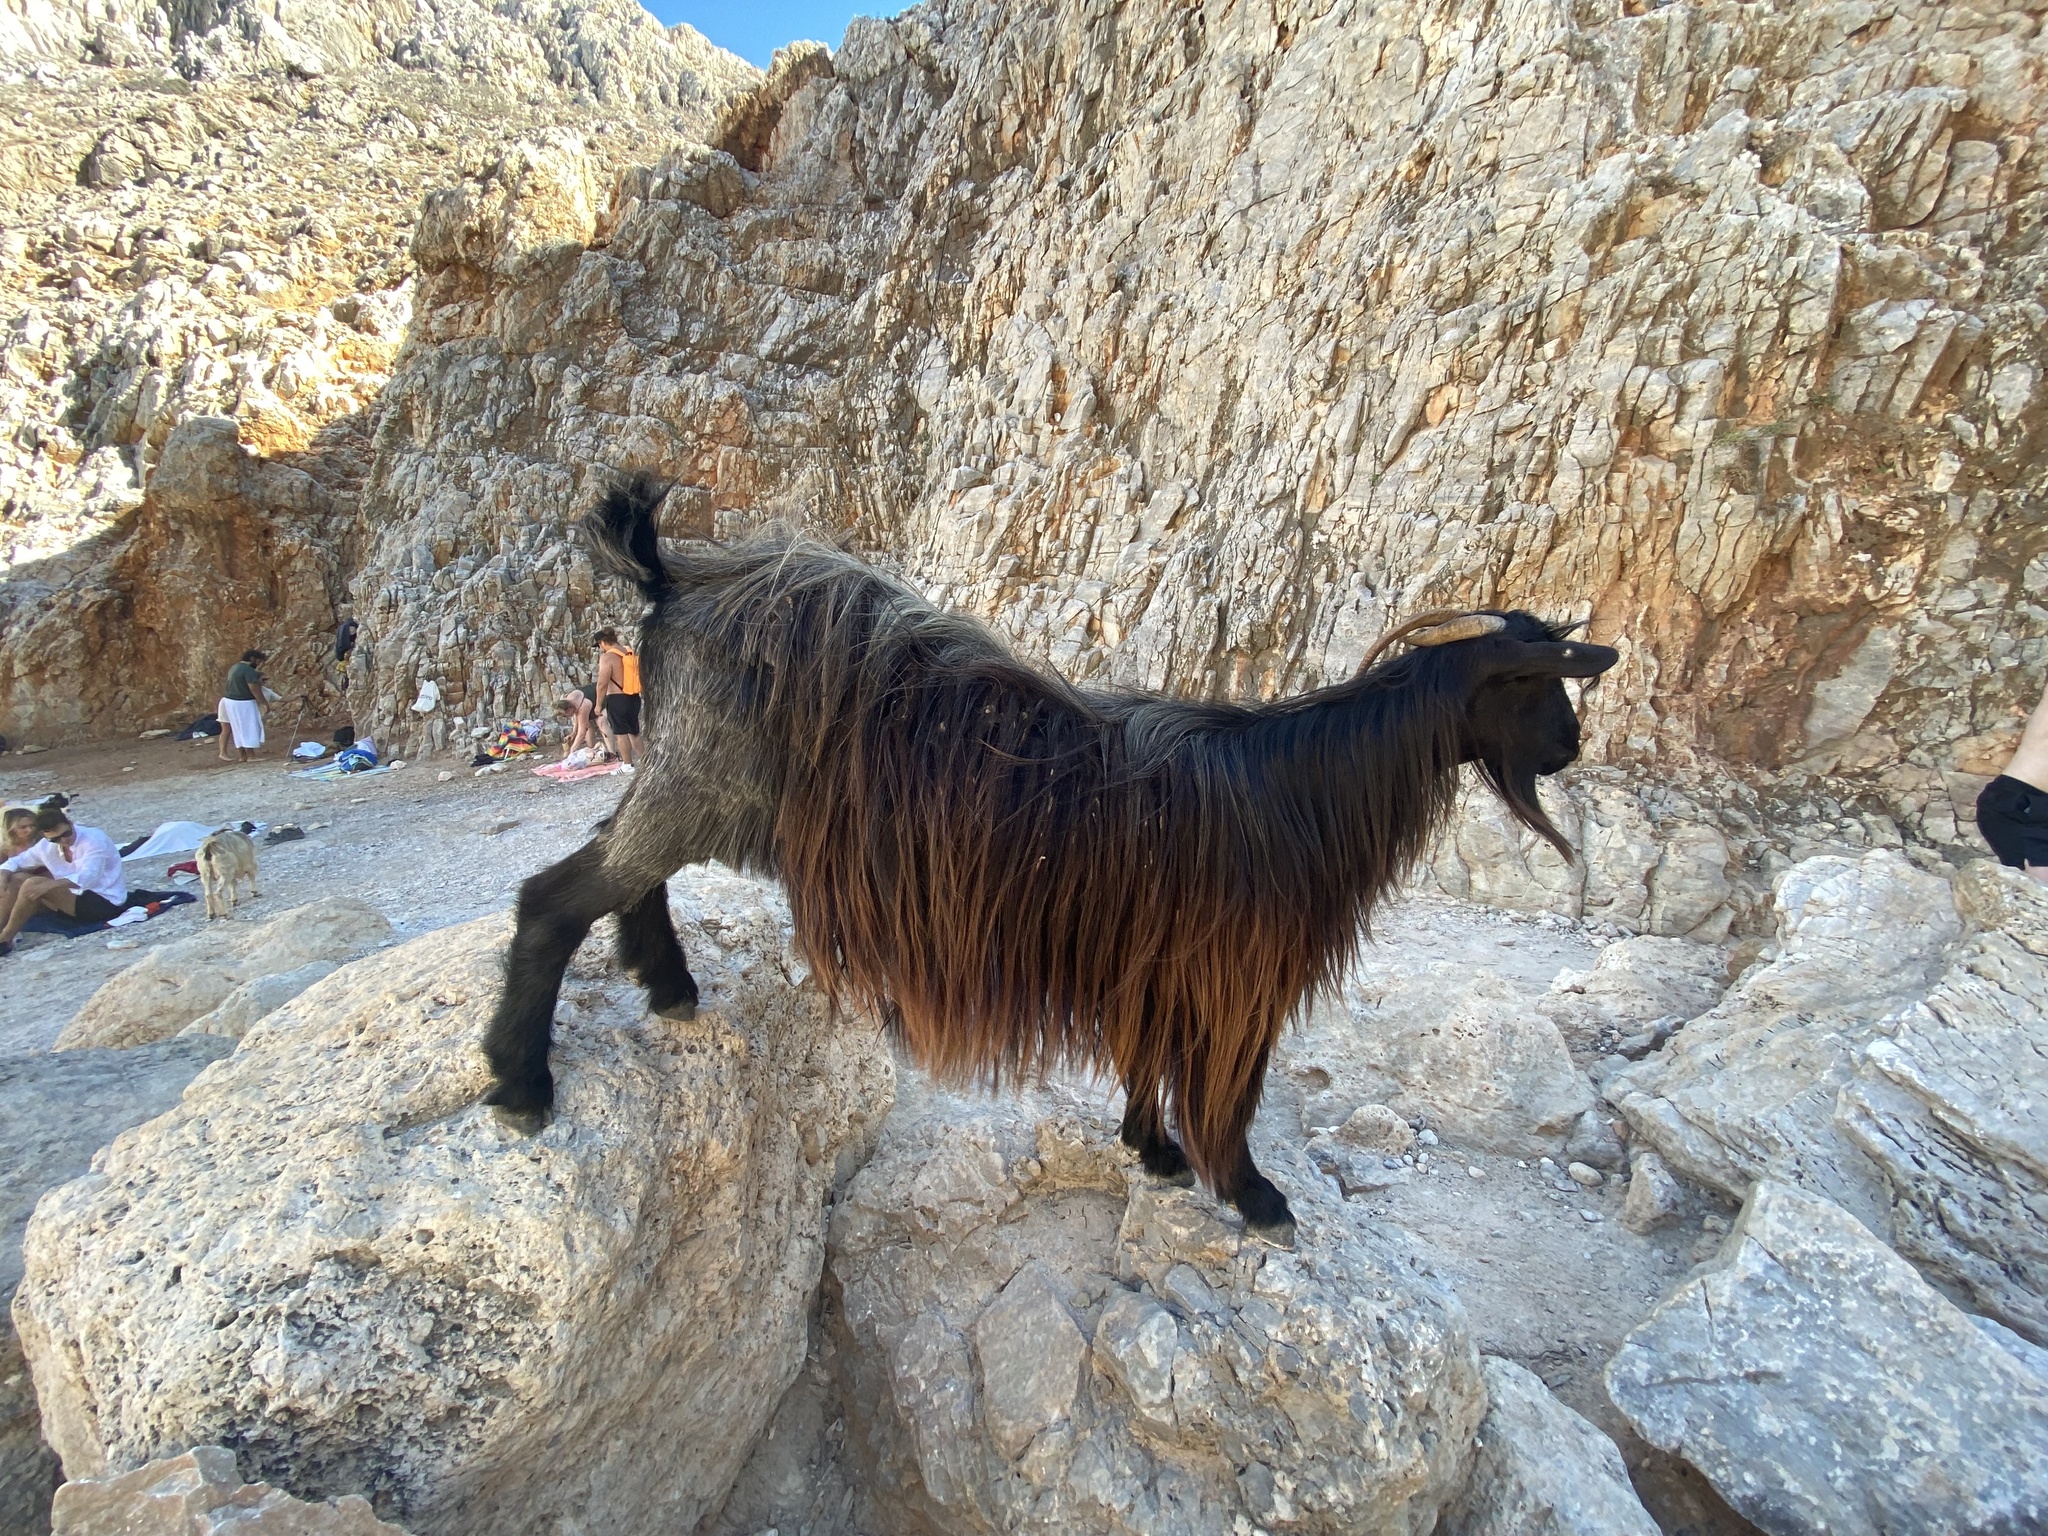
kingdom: Animalia
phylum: Chordata
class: Mammalia
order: Artiodactyla
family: Bovidae
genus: Capra
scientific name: Capra hircus
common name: Domestic goat
